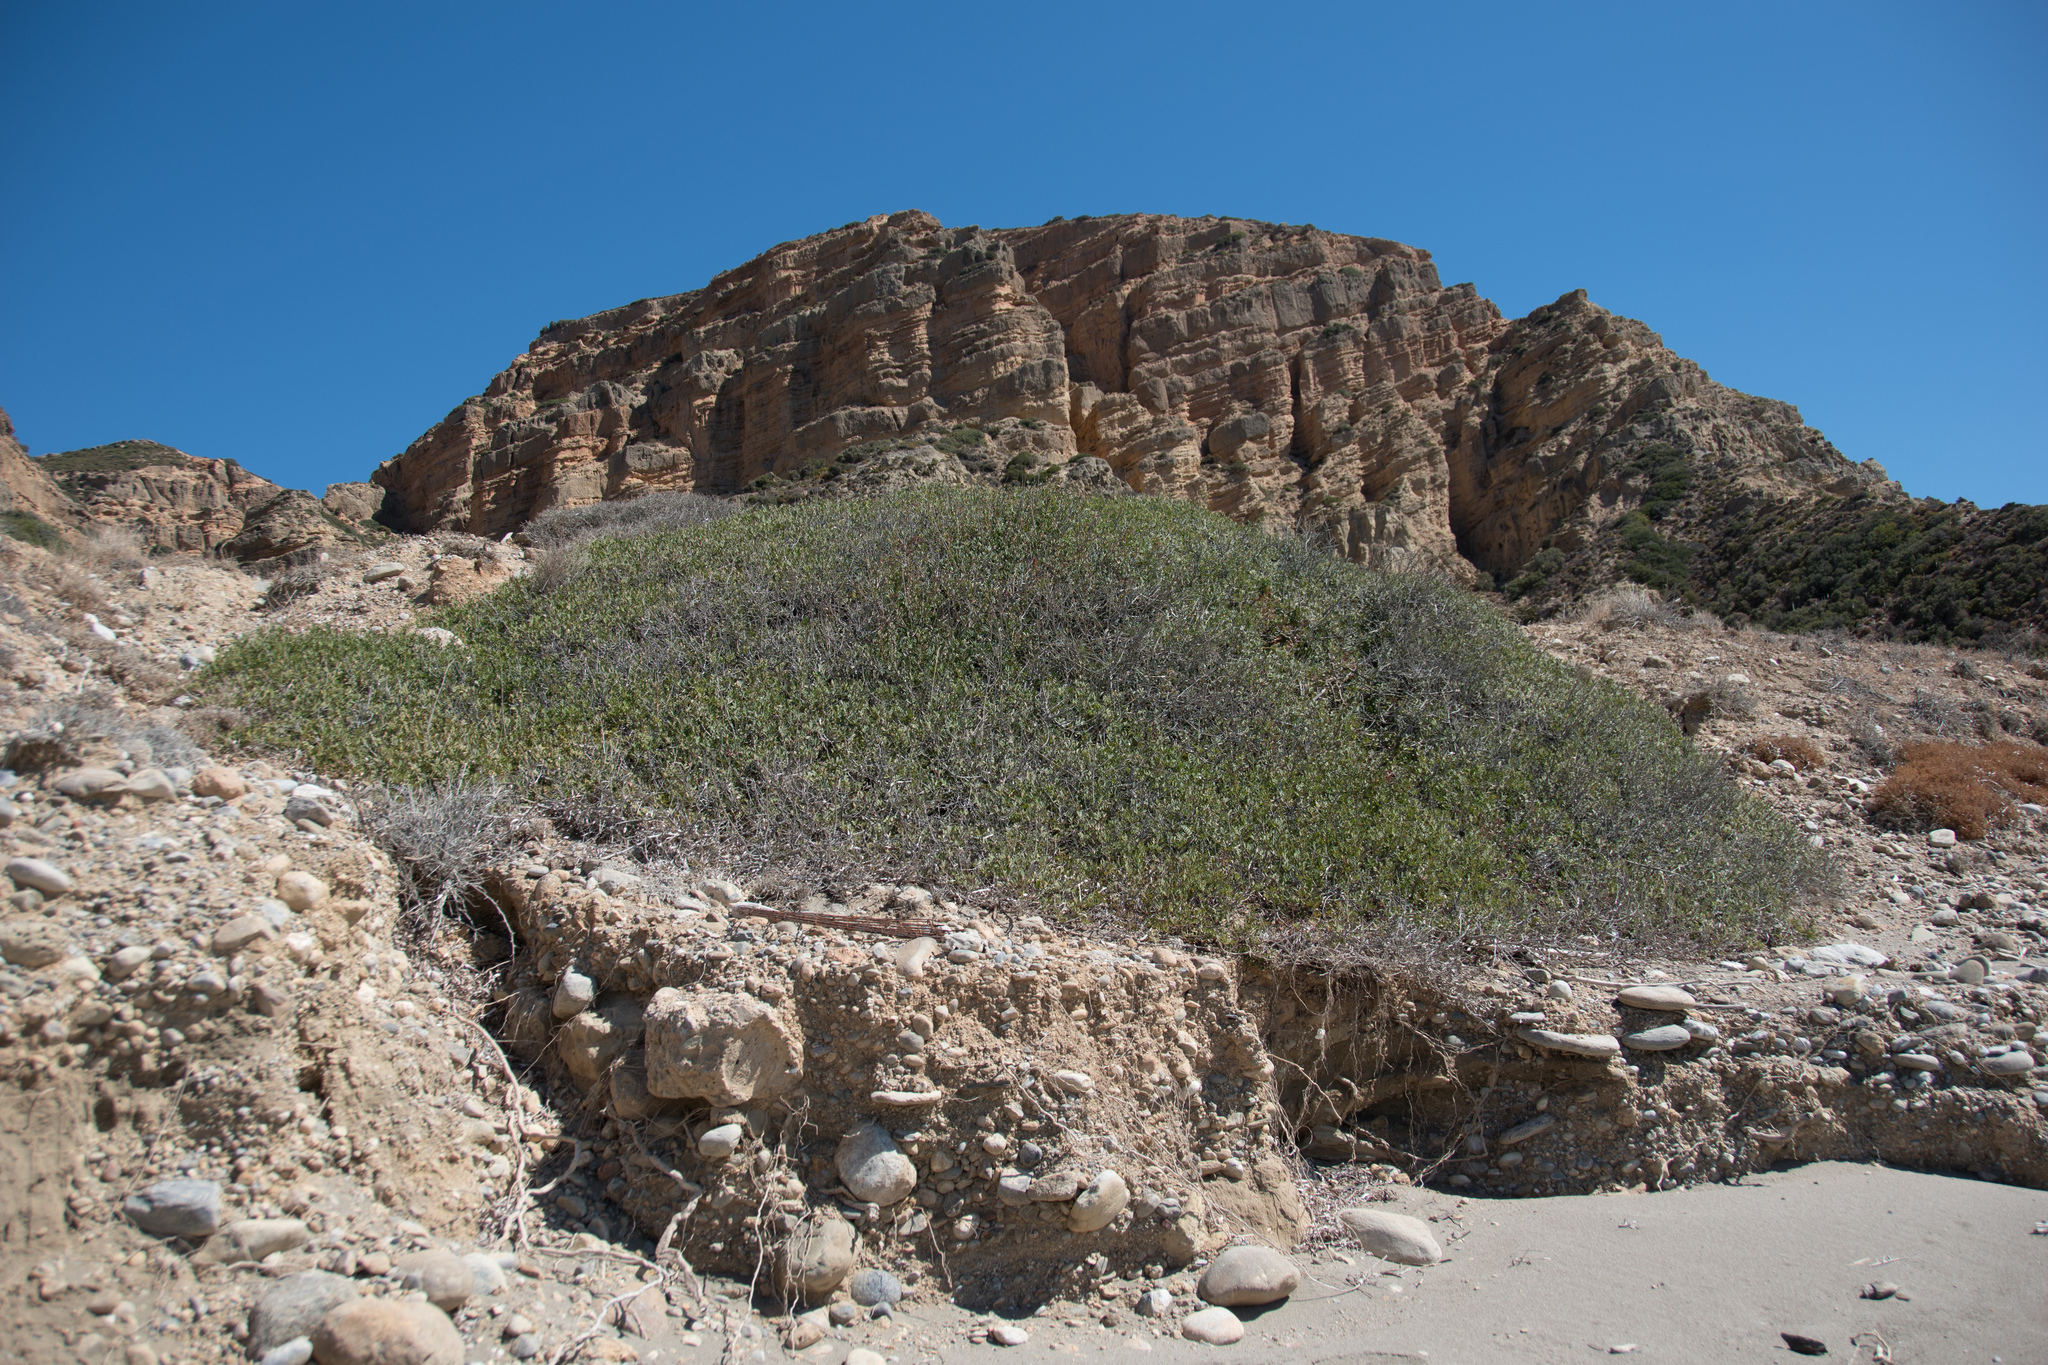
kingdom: Plantae
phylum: Tracheophyta
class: Magnoliopsida
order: Sapindales
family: Anacardiaceae
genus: Pistacia
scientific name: Pistacia lentiscus
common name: Lentisk
